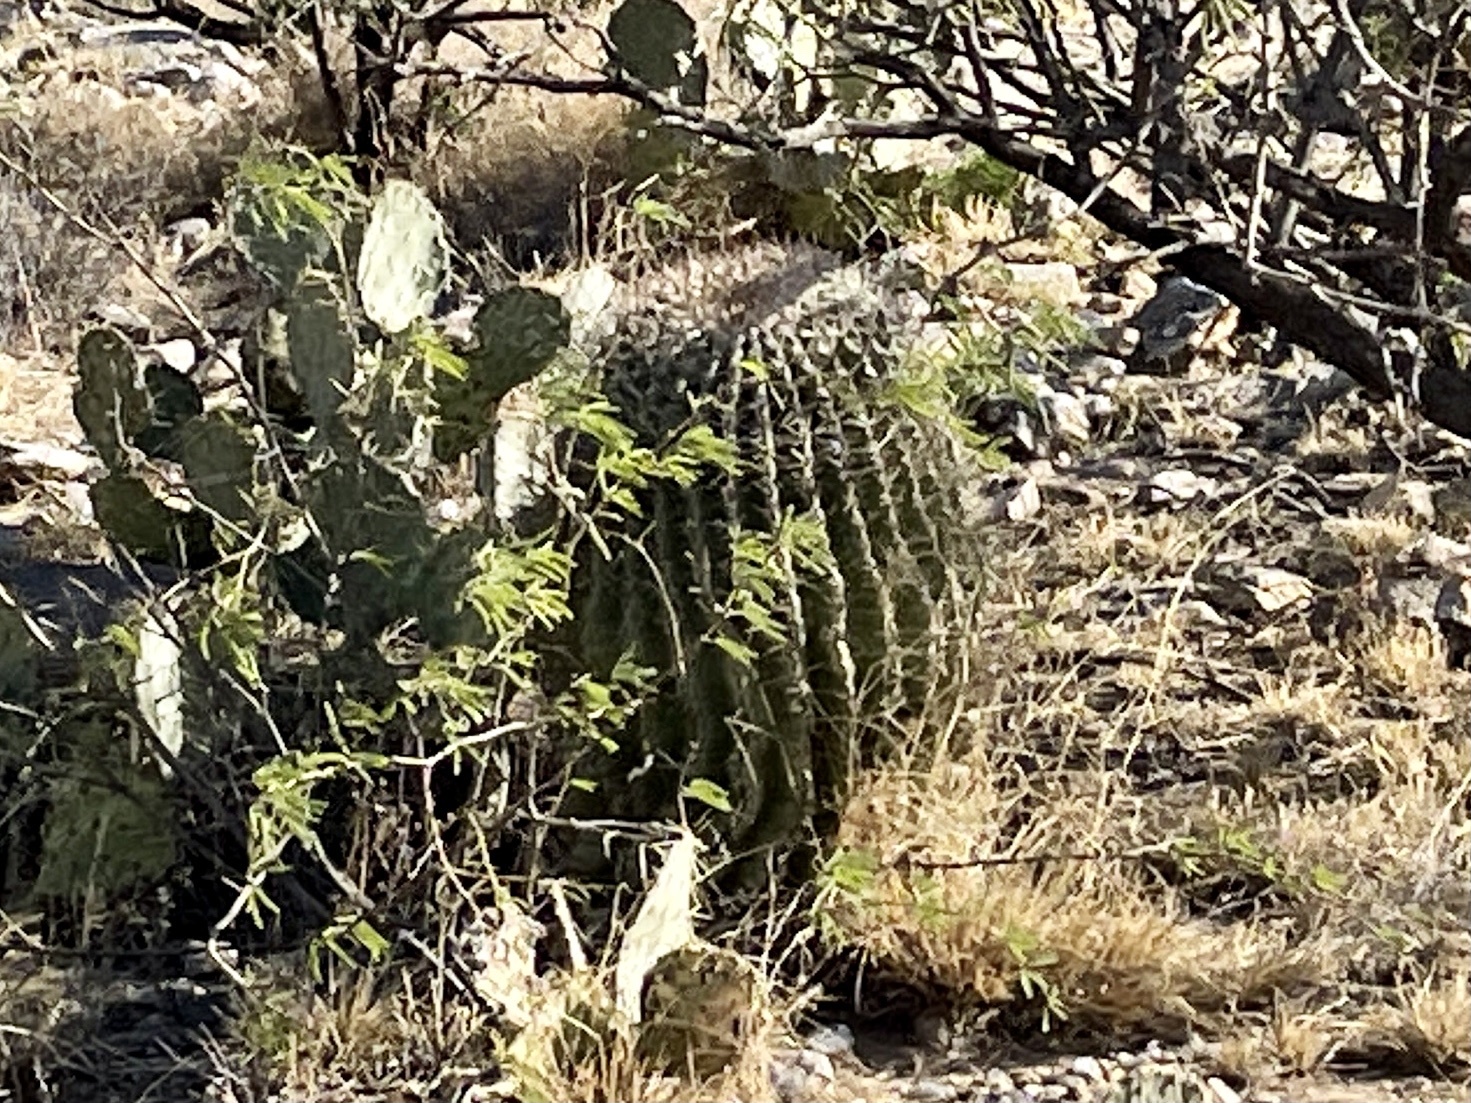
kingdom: Plantae
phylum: Tracheophyta
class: Magnoliopsida
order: Caryophyllales
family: Cactaceae
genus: Ferocactus
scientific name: Ferocactus wislizeni
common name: Candy barrel cactus
